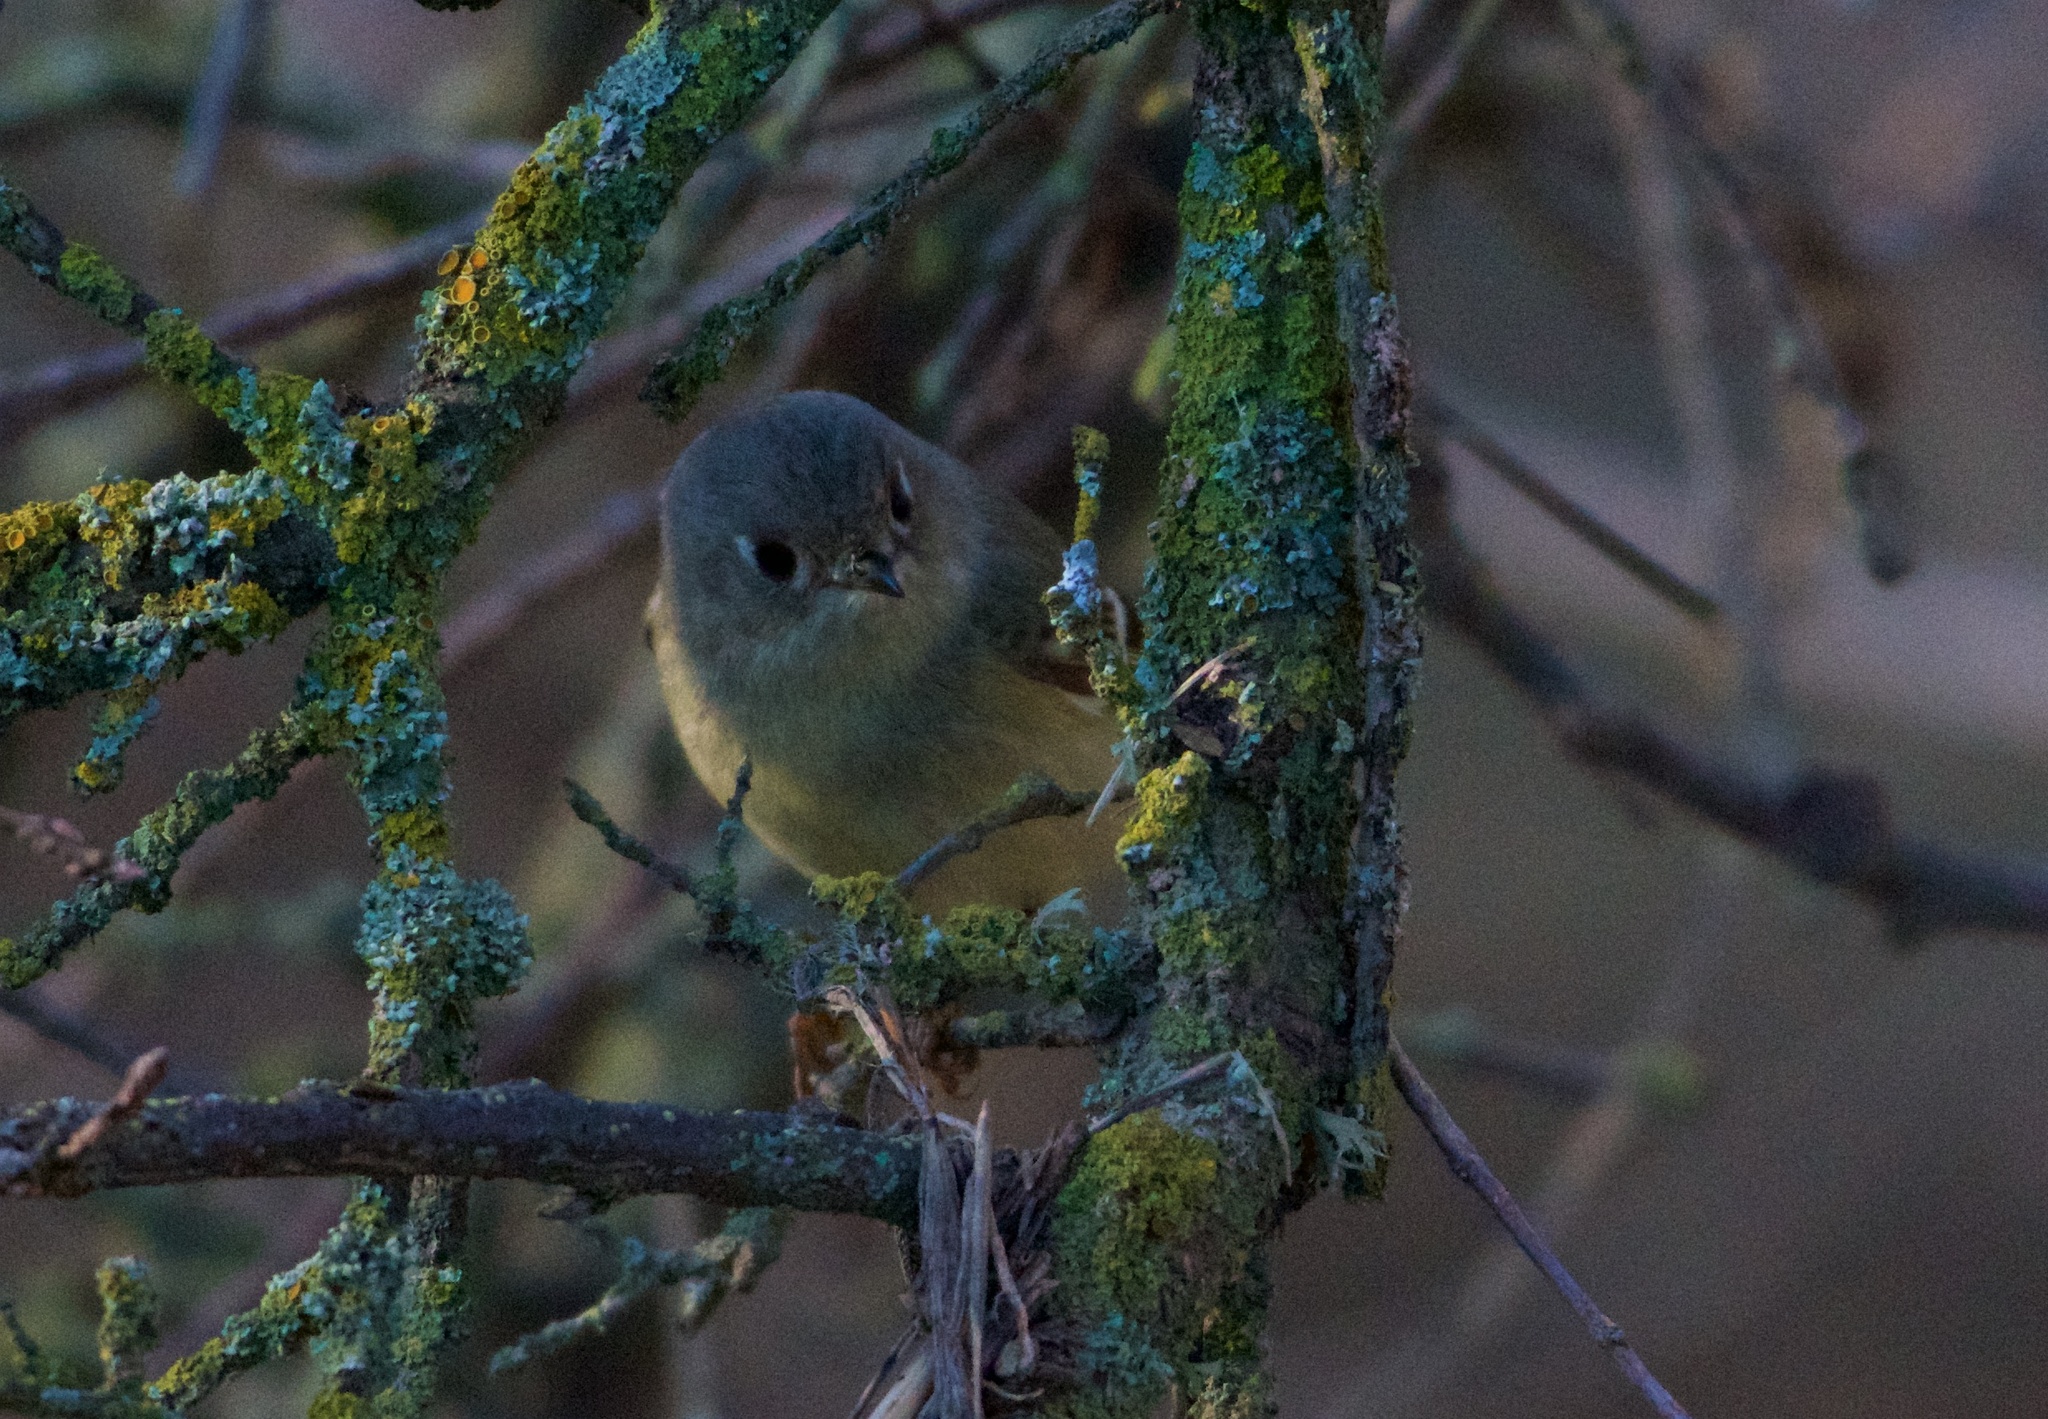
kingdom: Animalia
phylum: Chordata
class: Aves
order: Passeriformes
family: Regulidae
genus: Regulus
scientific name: Regulus calendula
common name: Ruby-crowned kinglet
